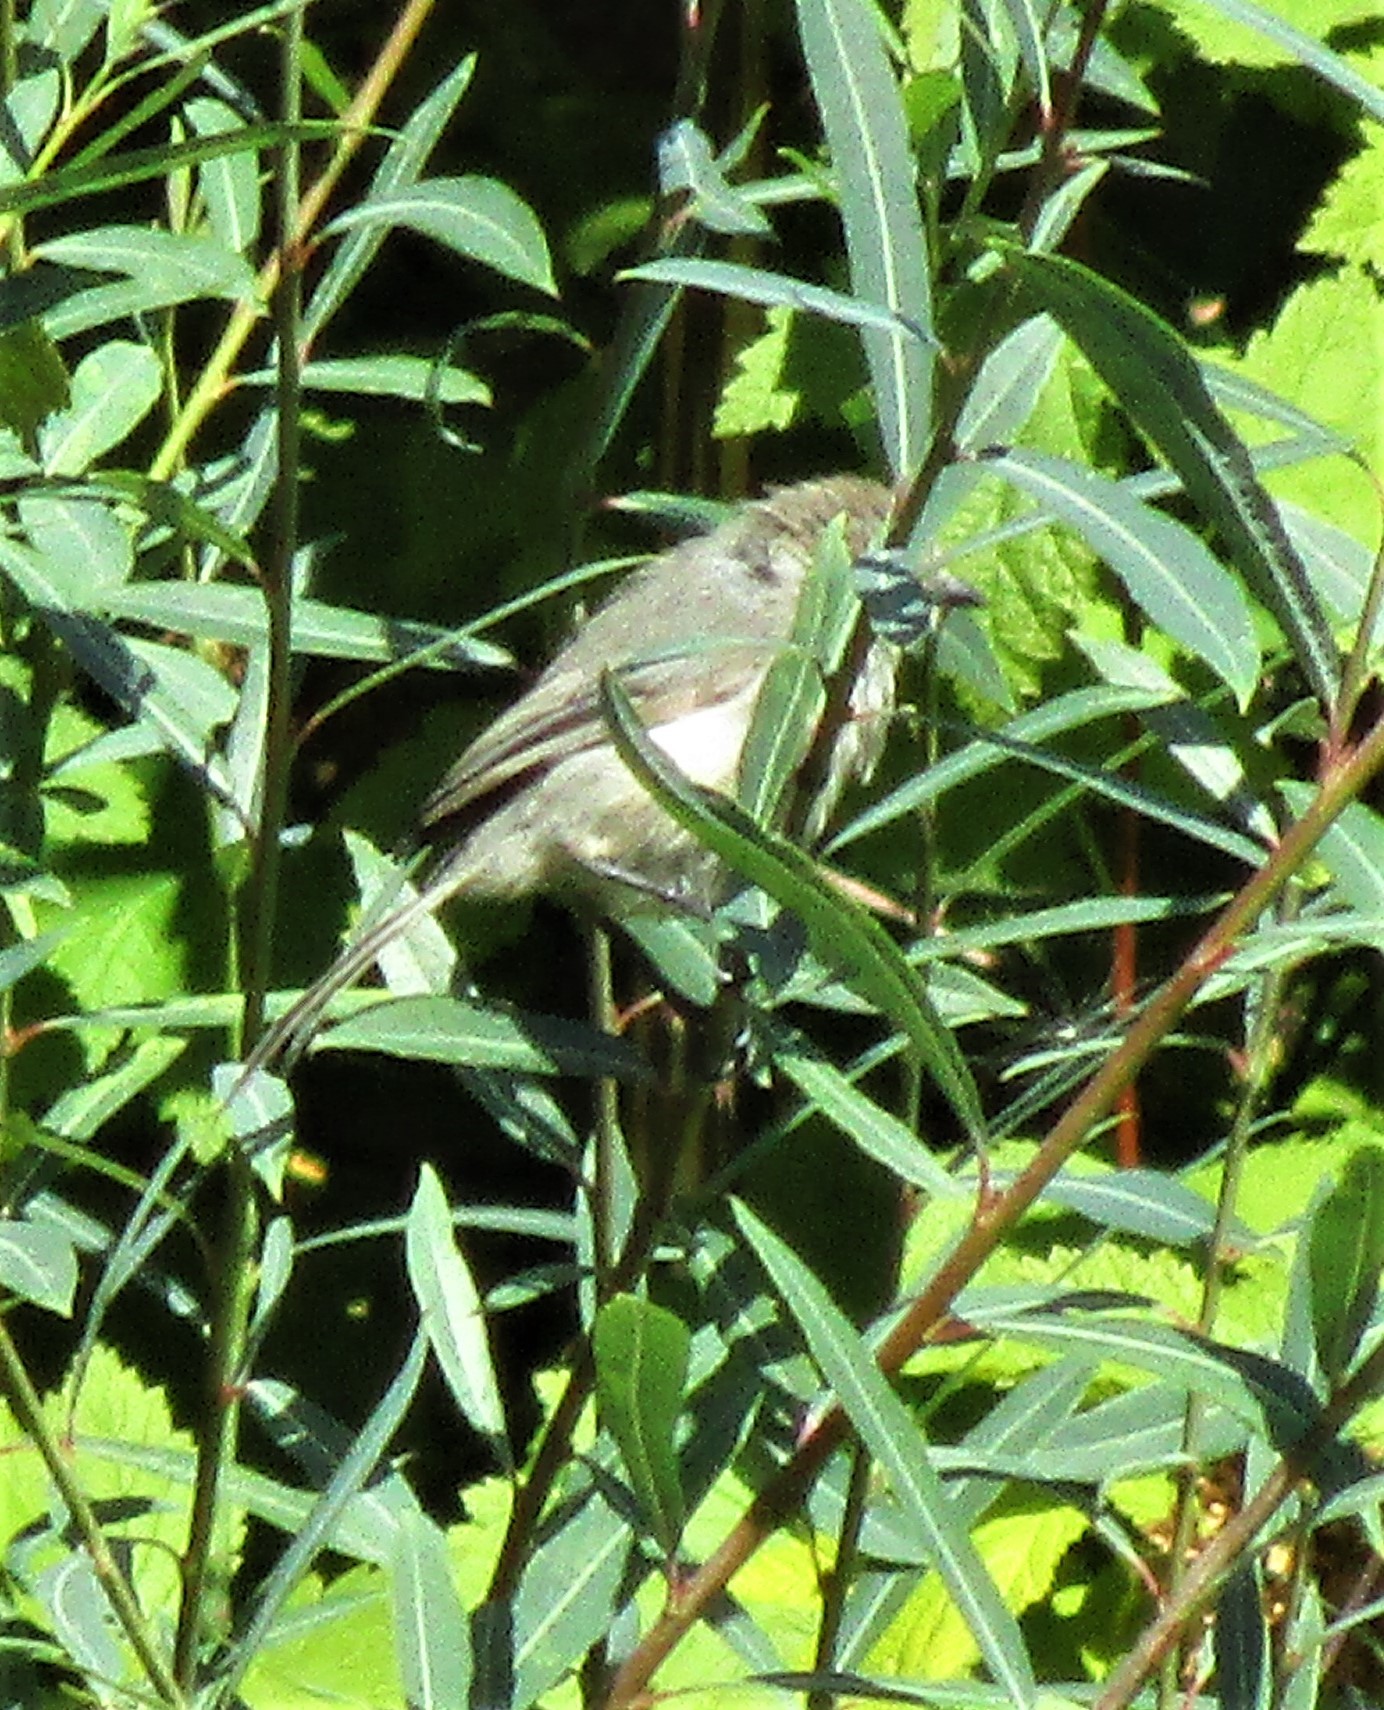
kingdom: Animalia
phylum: Chordata
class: Aves
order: Passeriformes
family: Aegithalidae
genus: Psaltriparus
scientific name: Psaltriparus minimus
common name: American bushtit
